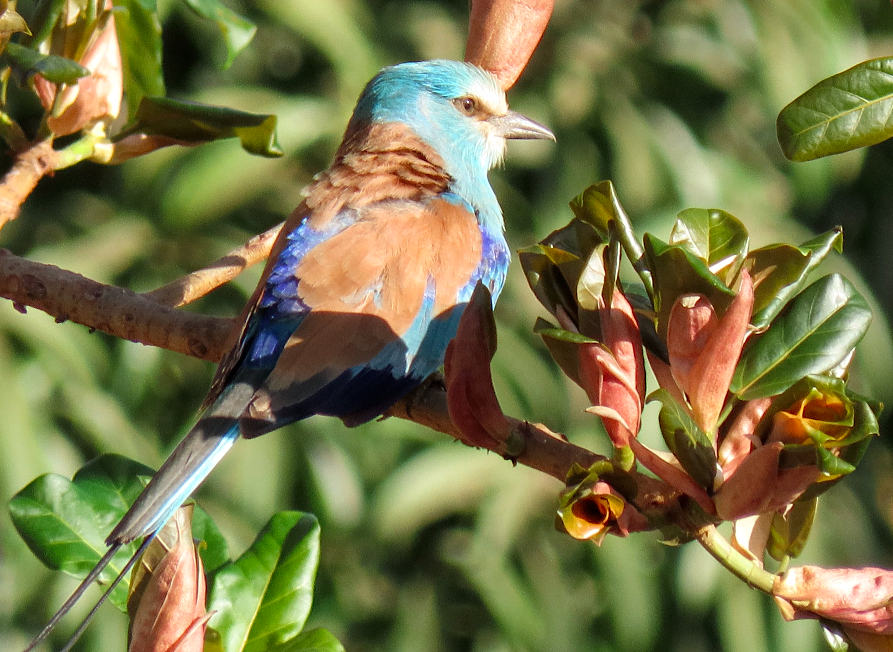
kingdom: Animalia
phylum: Chordata
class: Aves
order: Coraciiformes
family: Coraciidae
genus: Coracias
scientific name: Coracias abyssinicus
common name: Abyssinian roller
